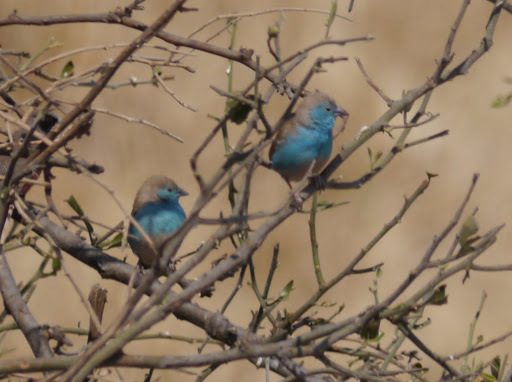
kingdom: Animalia
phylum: Chordata
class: Aves
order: Passeriformes
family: Estrildidae
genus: Uraeginthus
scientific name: Uraeginthus angolensis
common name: Blue waxbill
